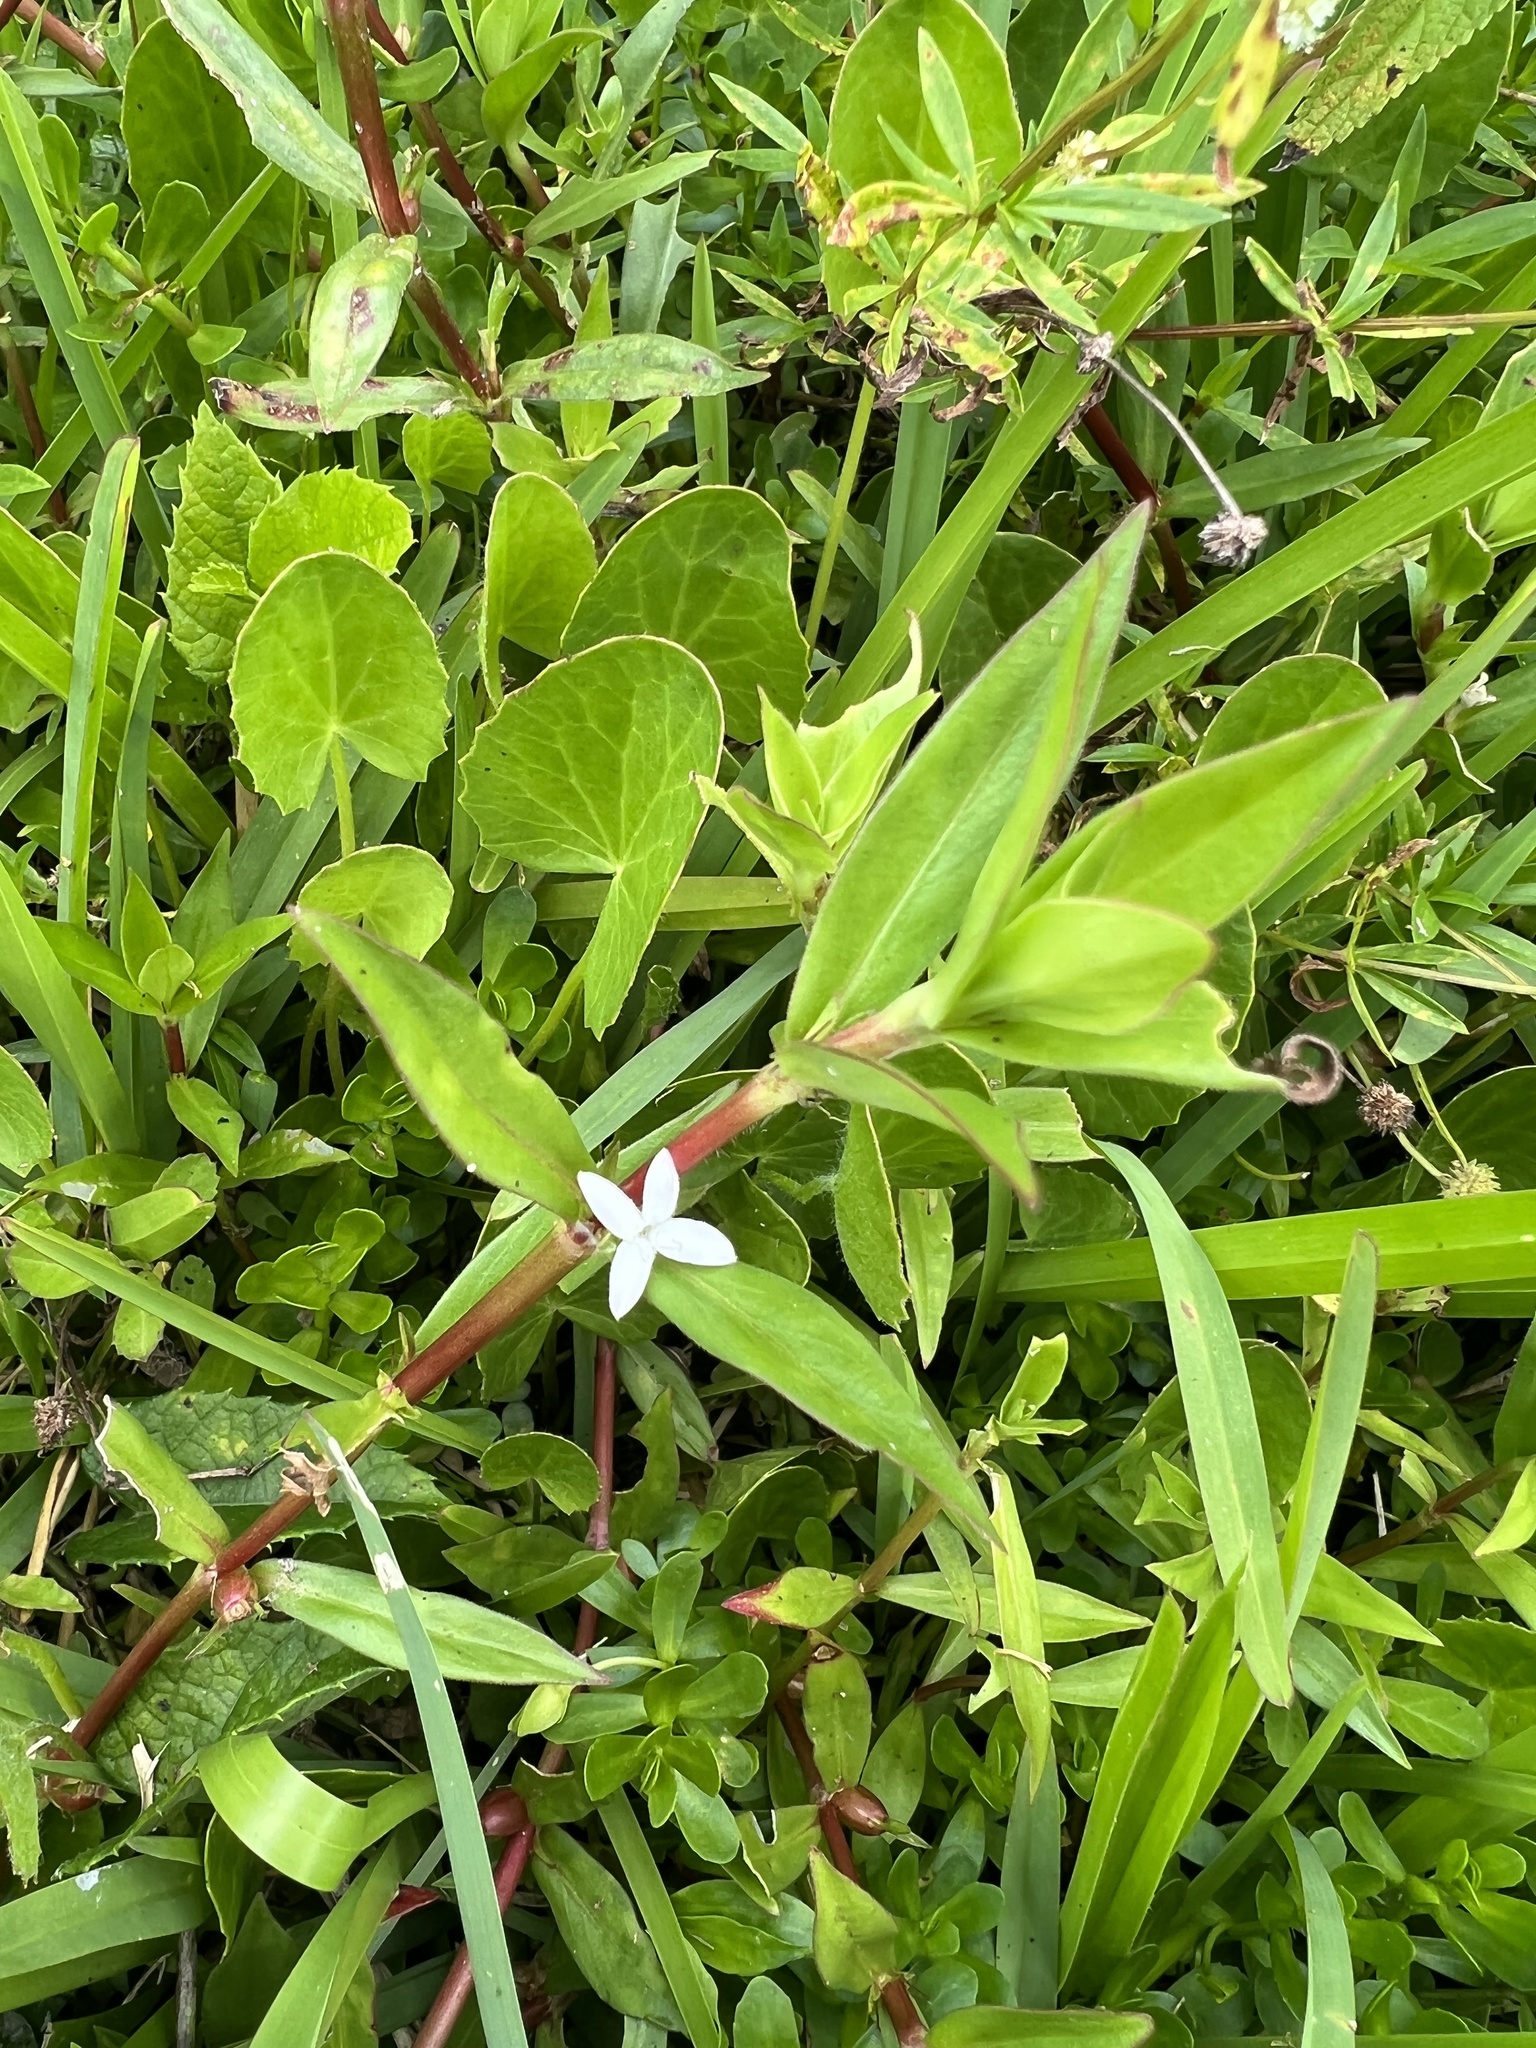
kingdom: Plantae
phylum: Tracheophyta
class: Magnoliopsida
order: Gentianales
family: Rubiaceae
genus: Diodia
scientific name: Diodia virginiana
